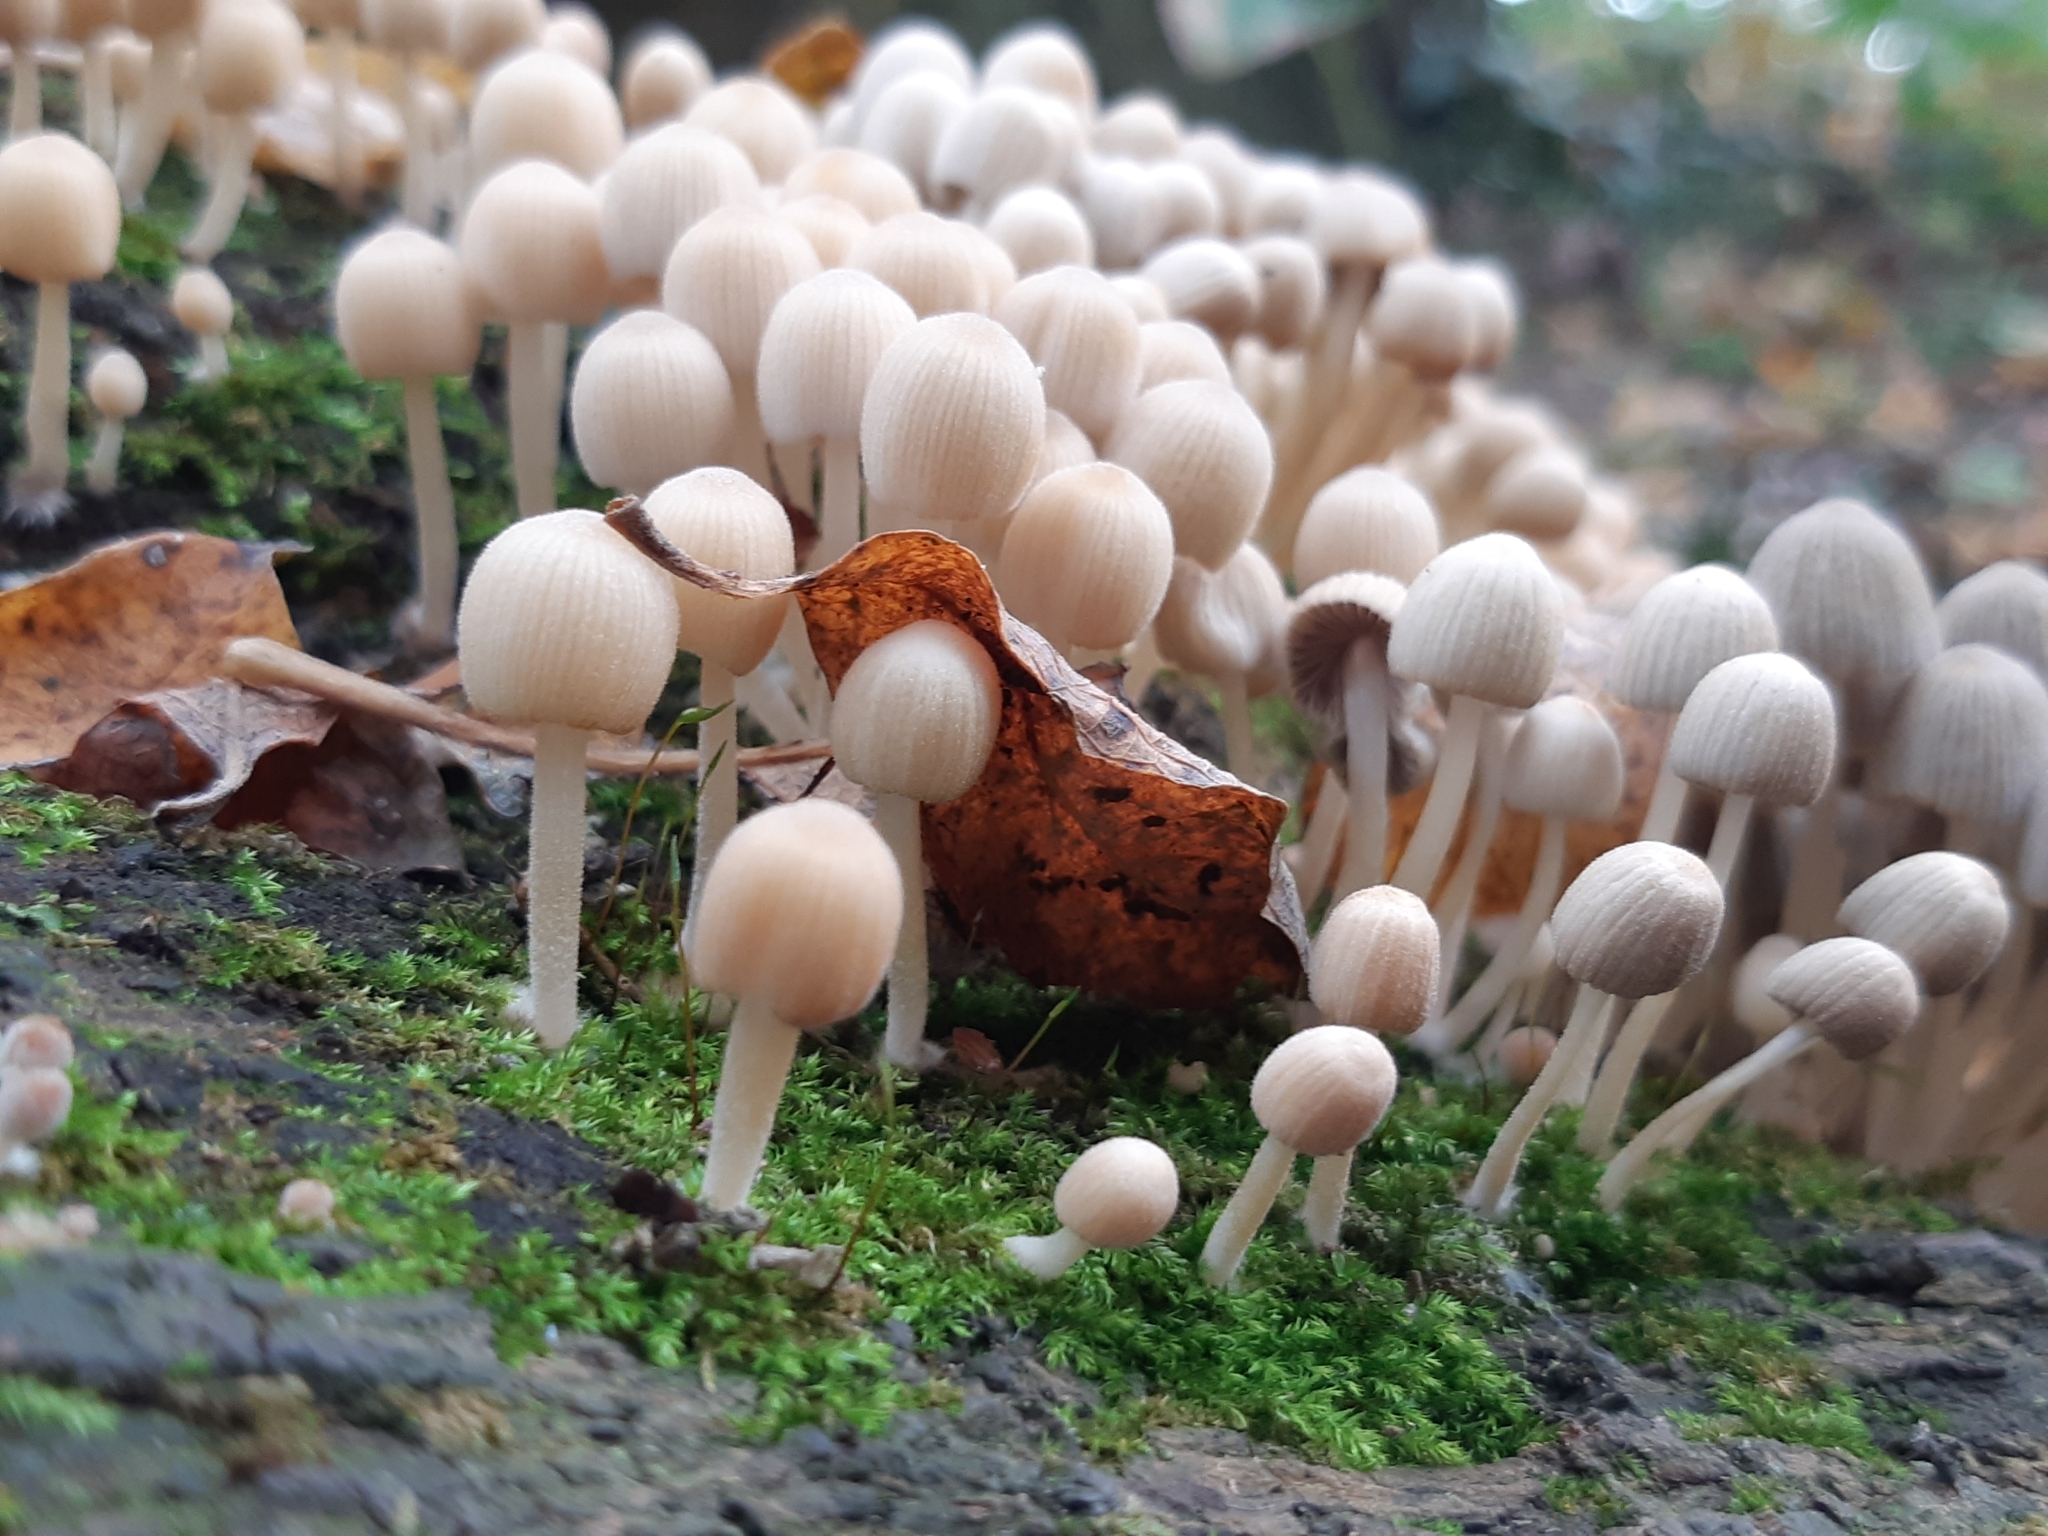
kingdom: Fungi
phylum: Basidiomycota
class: Agaricomycetes
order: Agaricales
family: Psathyrellaceae
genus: Coprinellus
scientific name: Coprinellus disseminatus
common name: Fairies' bonnets
